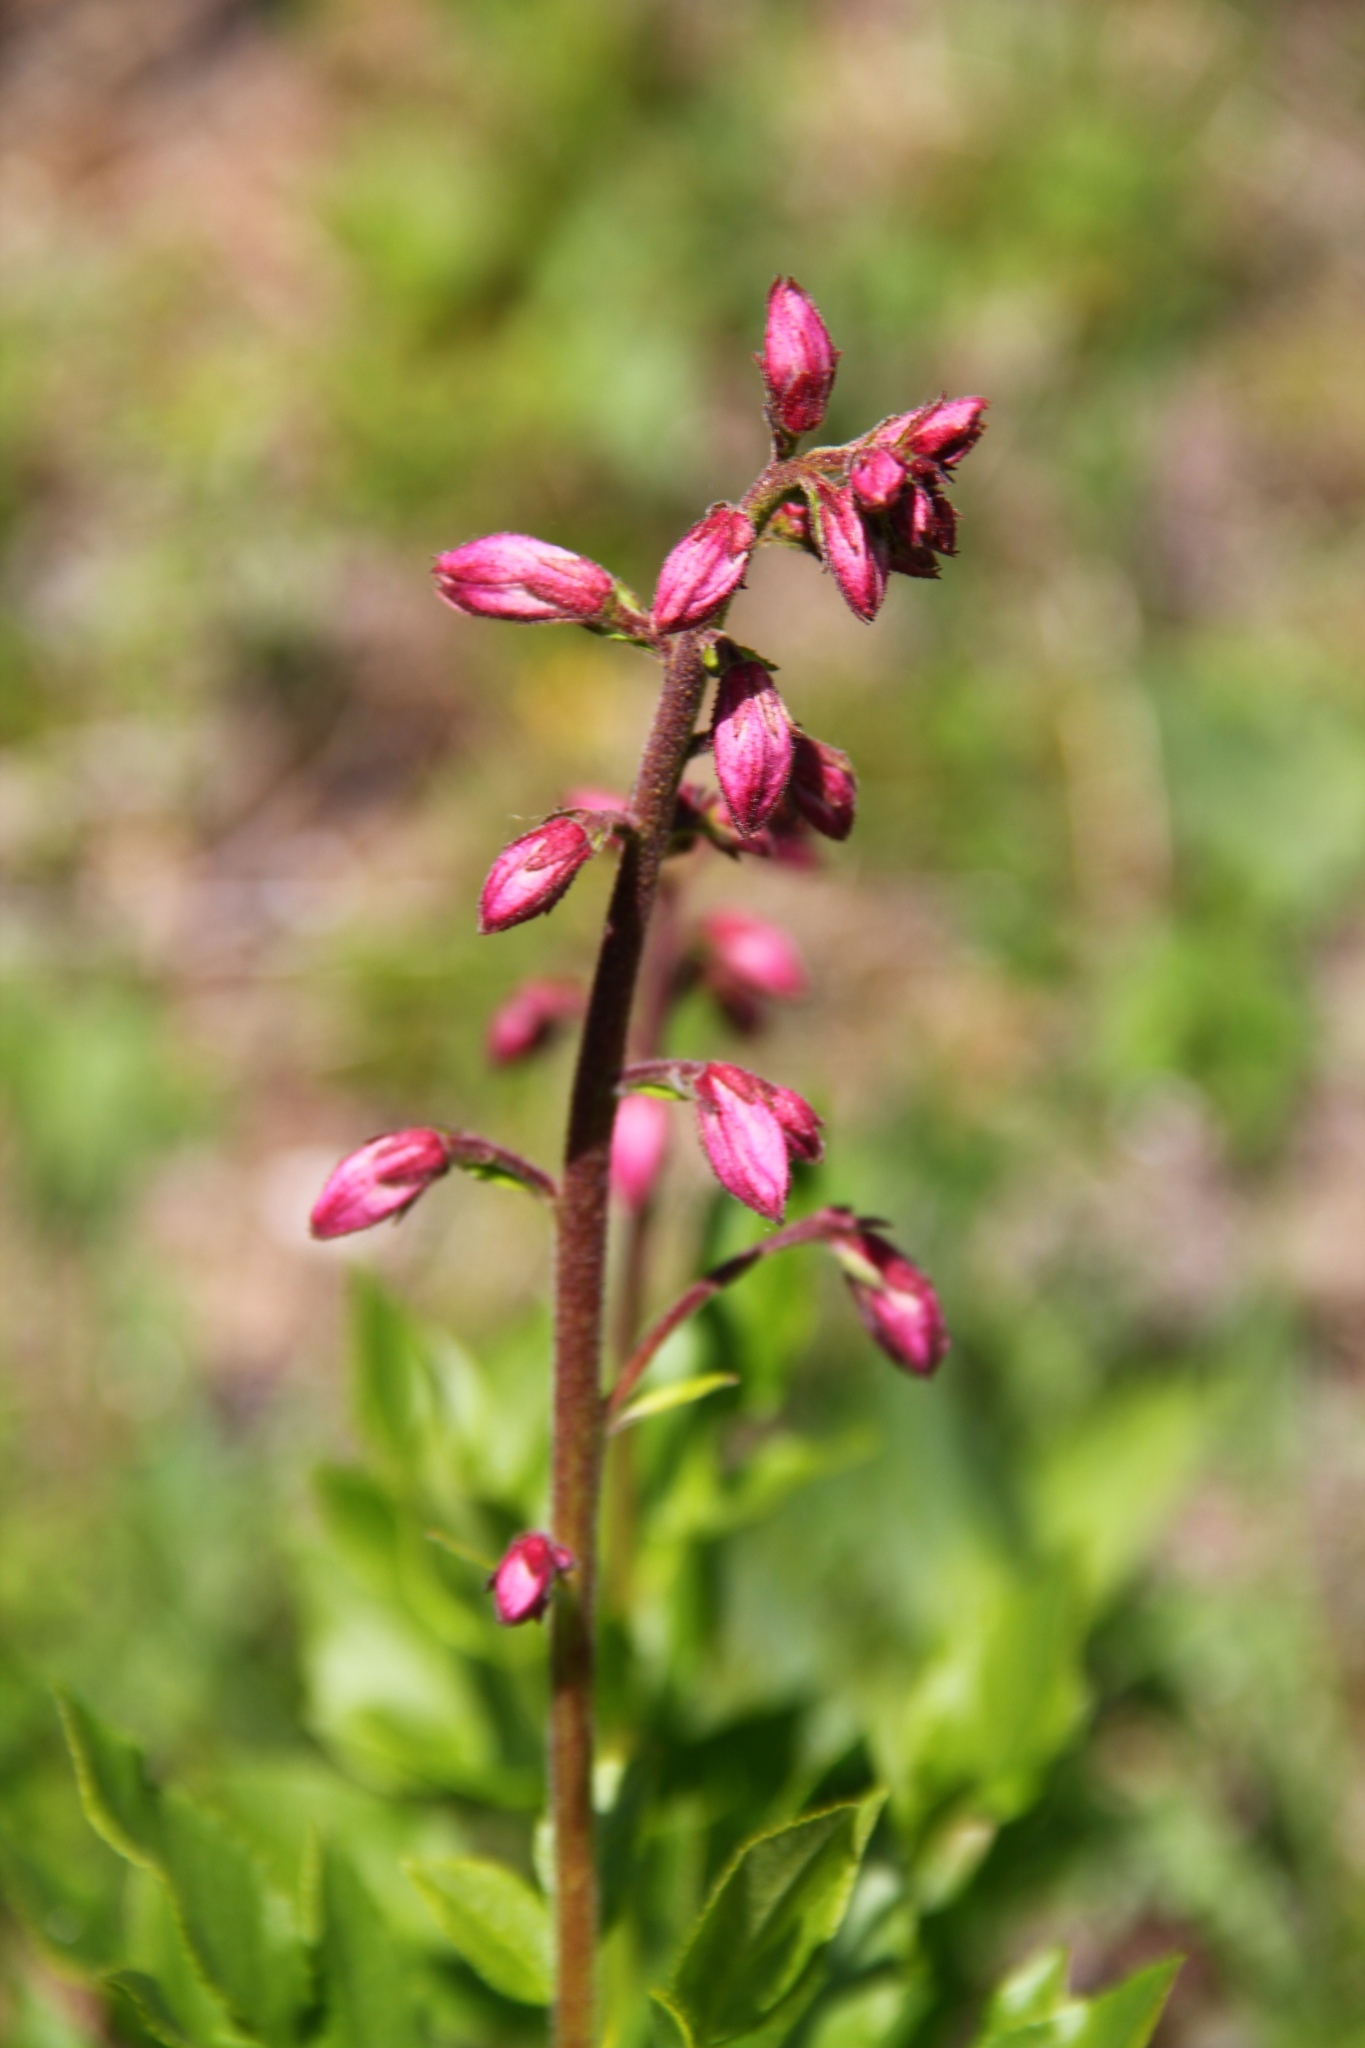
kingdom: Plantae
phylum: Tracheophyta
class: Magnoliopsida
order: Sapindales
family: Rutaceae
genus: Dictamnus
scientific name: Dictamnus albus
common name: Gasplant
